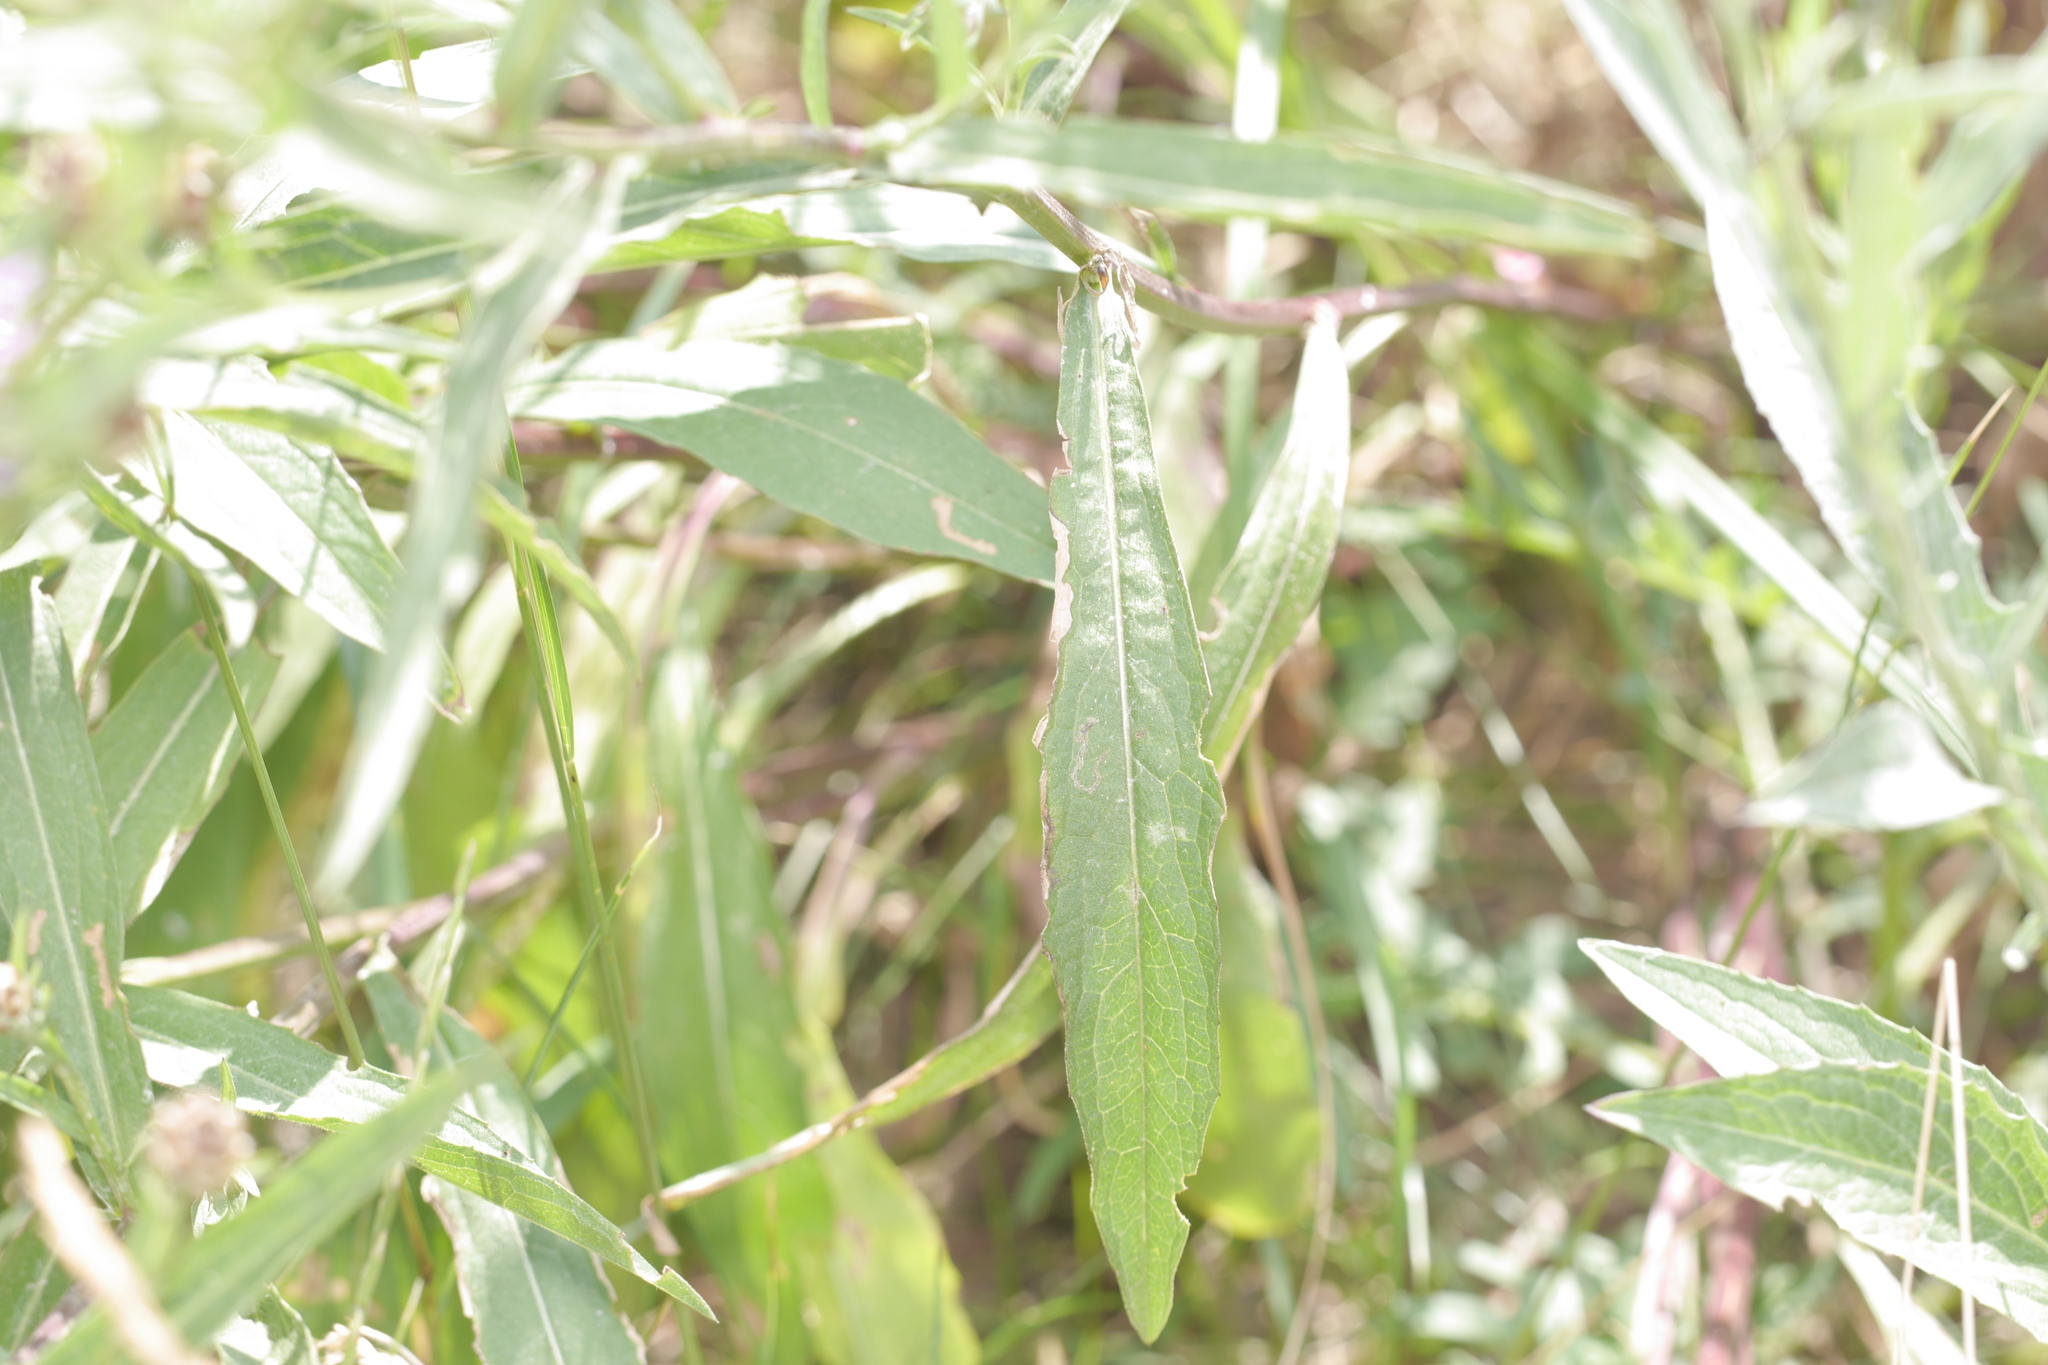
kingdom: Plantae
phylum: Tracheophyta
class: Magnoliopsida
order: Asterales
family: Asteraceae
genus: Centaurea
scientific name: Centaurea jacea
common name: Brown knapweed
